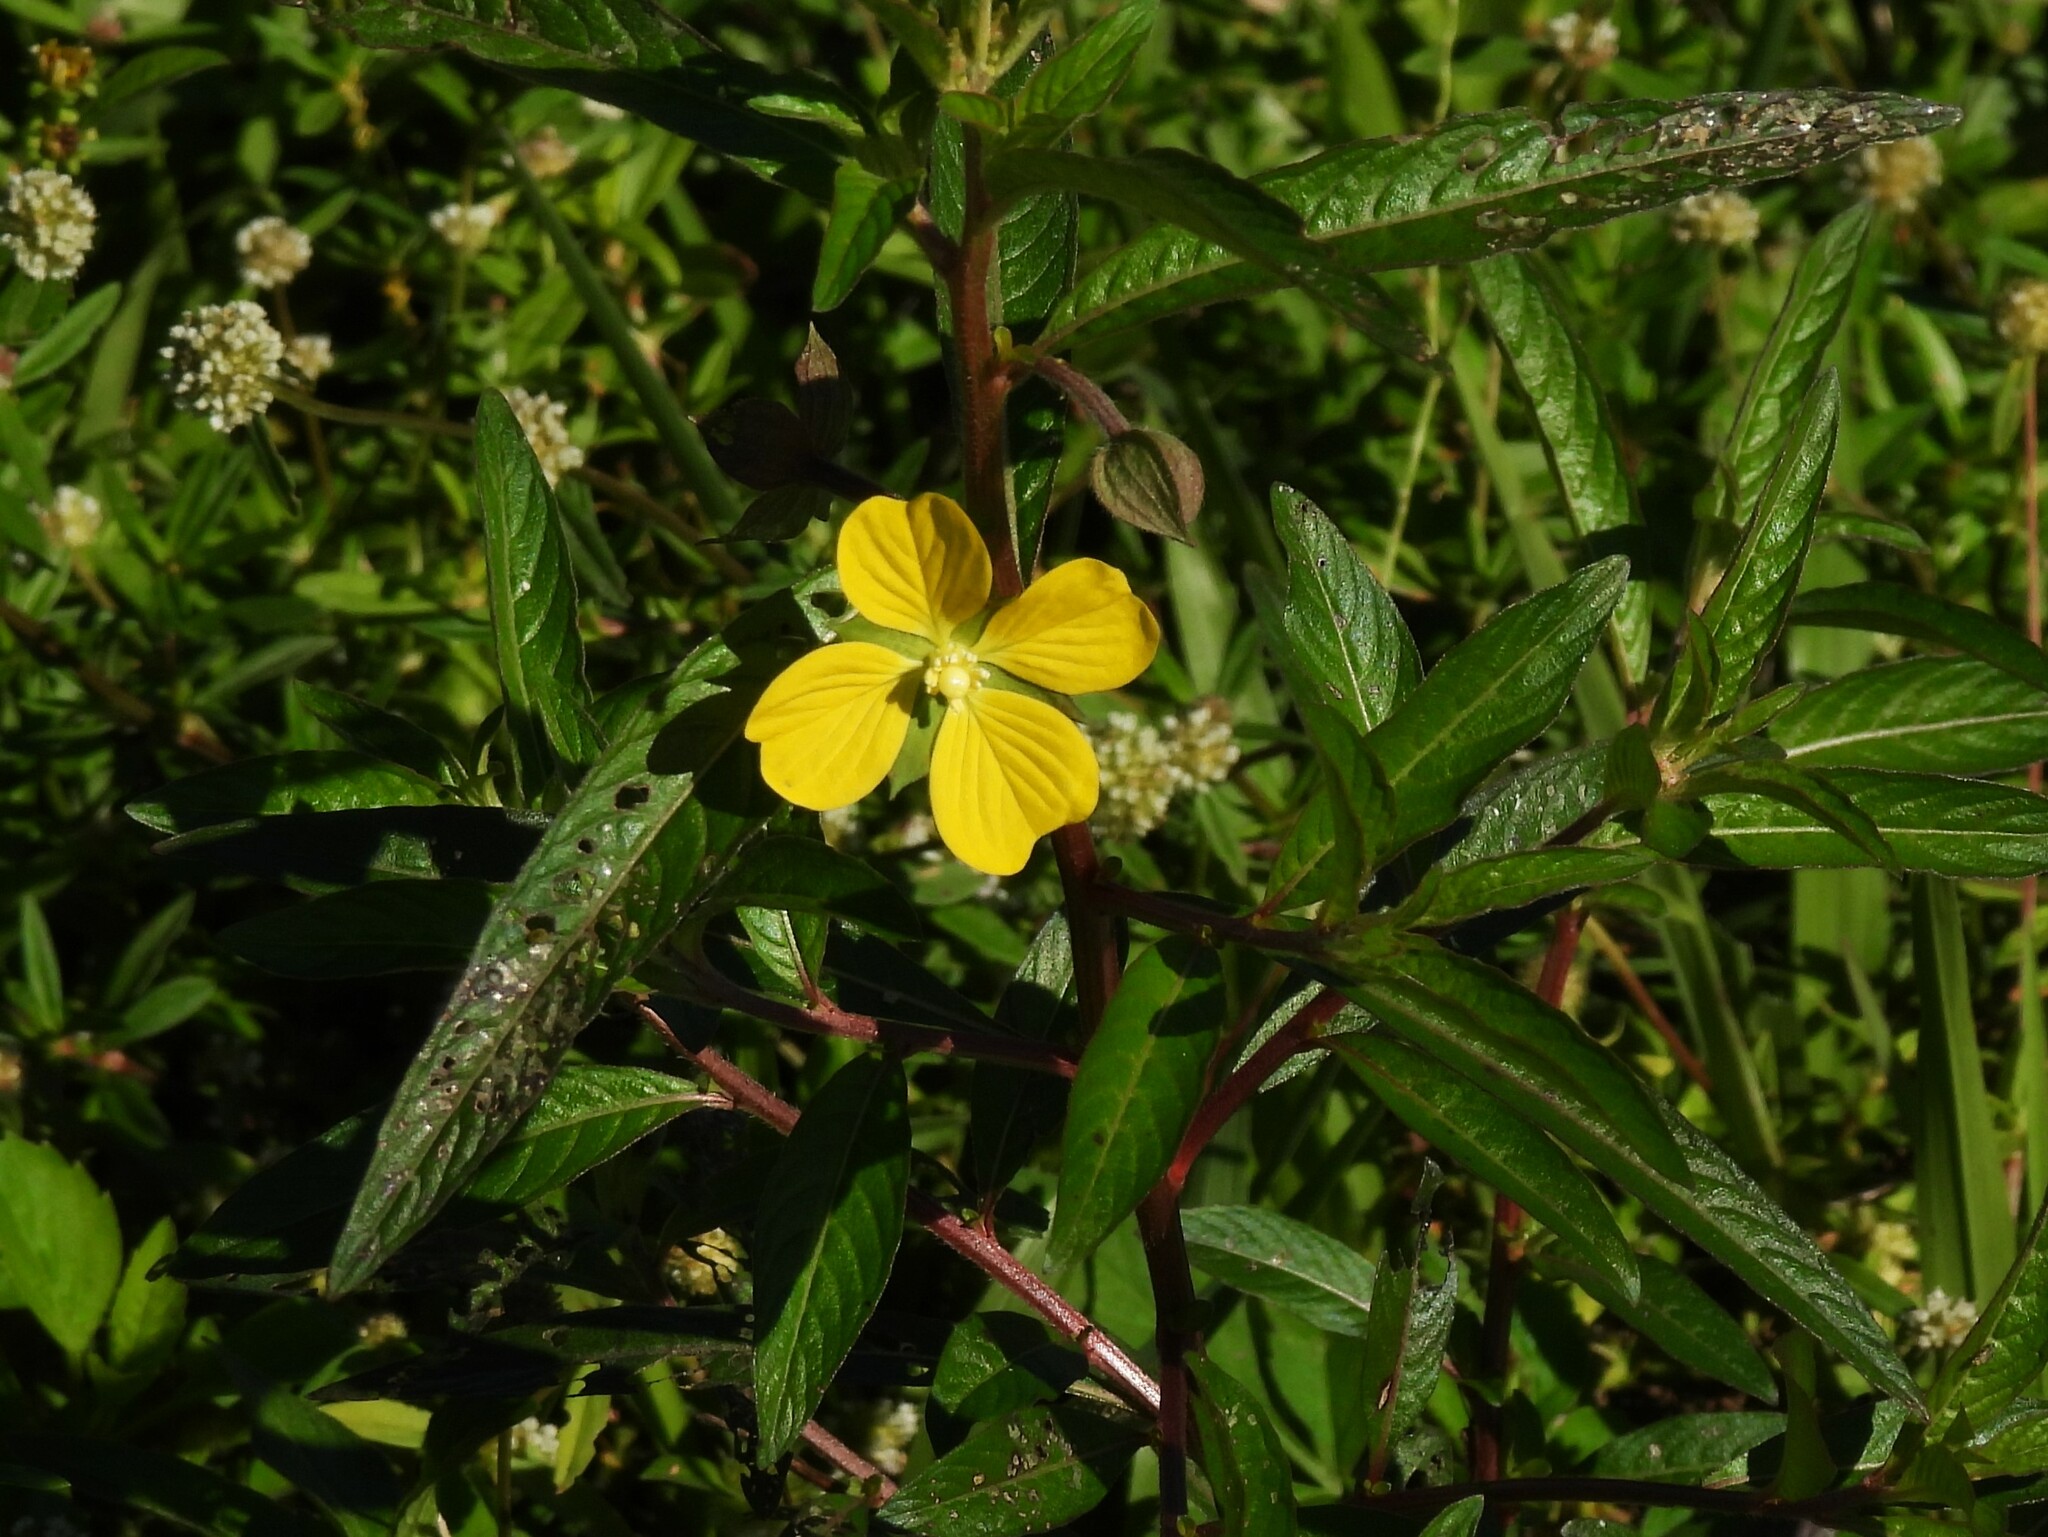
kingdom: Plantae
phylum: Tracheophyta
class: Magnoliopsida
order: Myrtales
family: Onagraceae
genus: Ludwigia
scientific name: Ludwigia octovalvis
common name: Water-primrose
